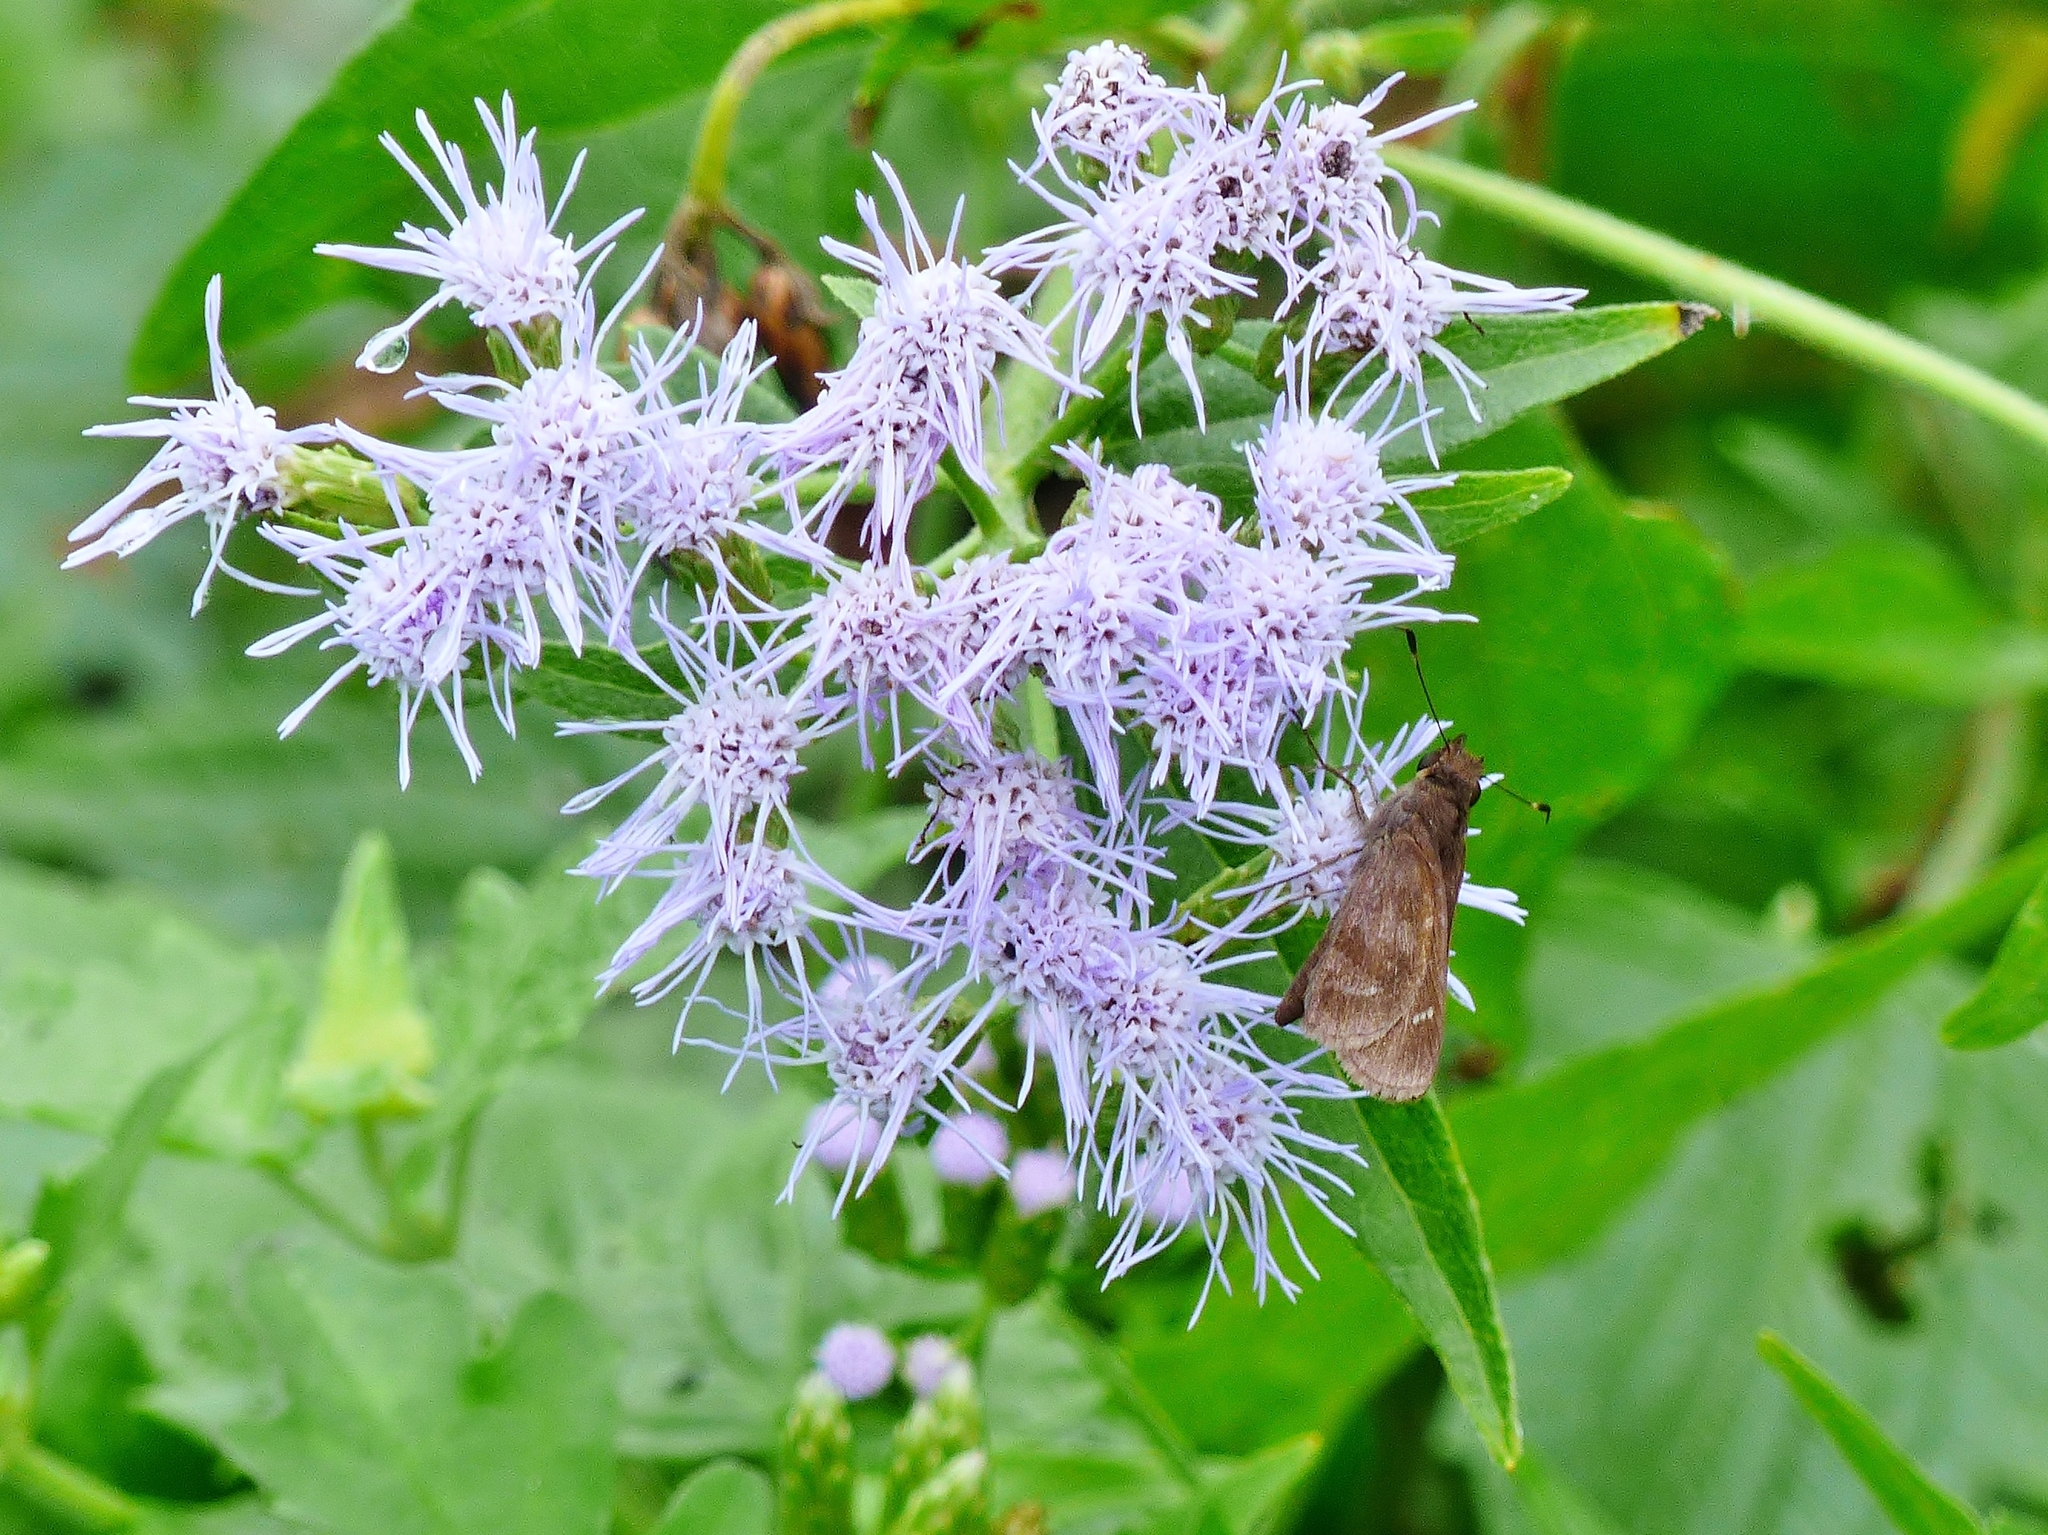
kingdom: Plantae
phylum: Tracheophyta
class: Magnoliopsida
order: Asterales
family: Asteraceae
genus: Chromolaena
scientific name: Chromolaena odorata
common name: Siamweed
